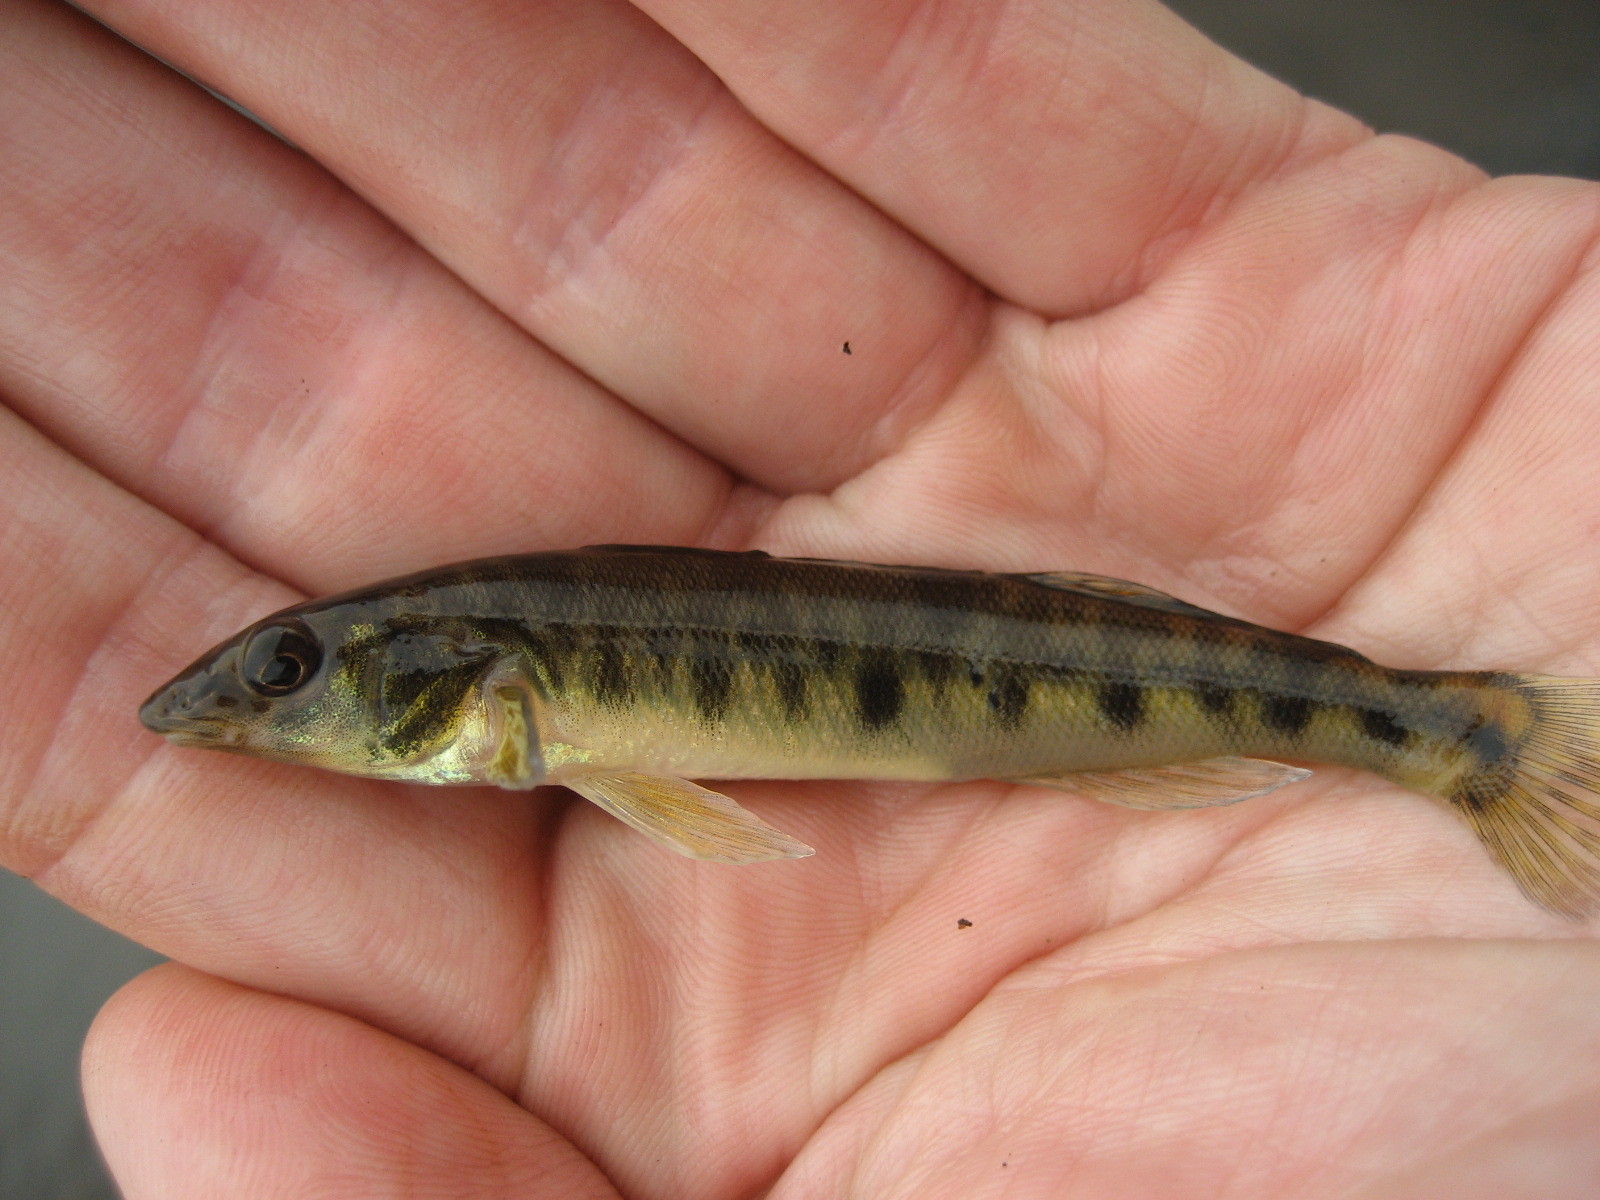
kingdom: Animalia
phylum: Chordata
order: Perciformes
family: Percidae
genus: Percina
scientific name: Percina caprodes
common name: Logperch
